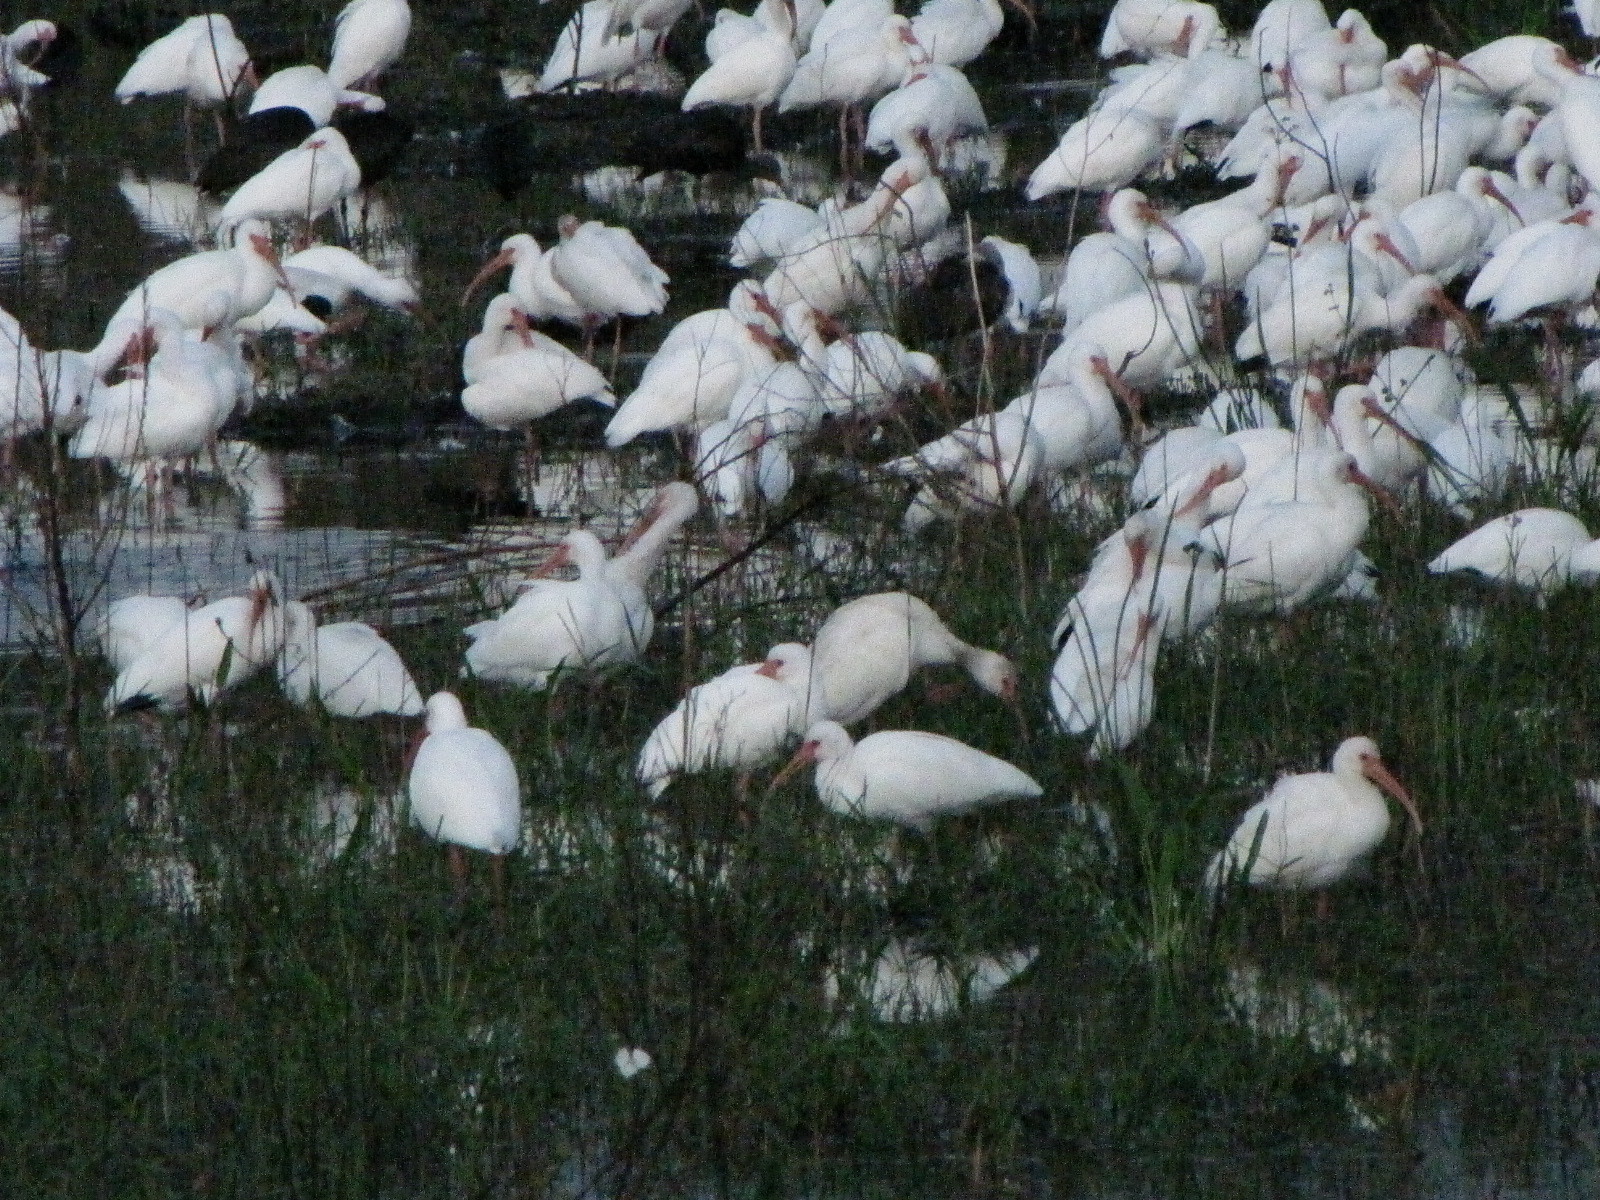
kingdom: Animalia
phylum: Chordata
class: Aves
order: Pelecaniformes
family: Threskiornithidae
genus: Eudocimus
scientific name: Eudocimus albus
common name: White ibis
